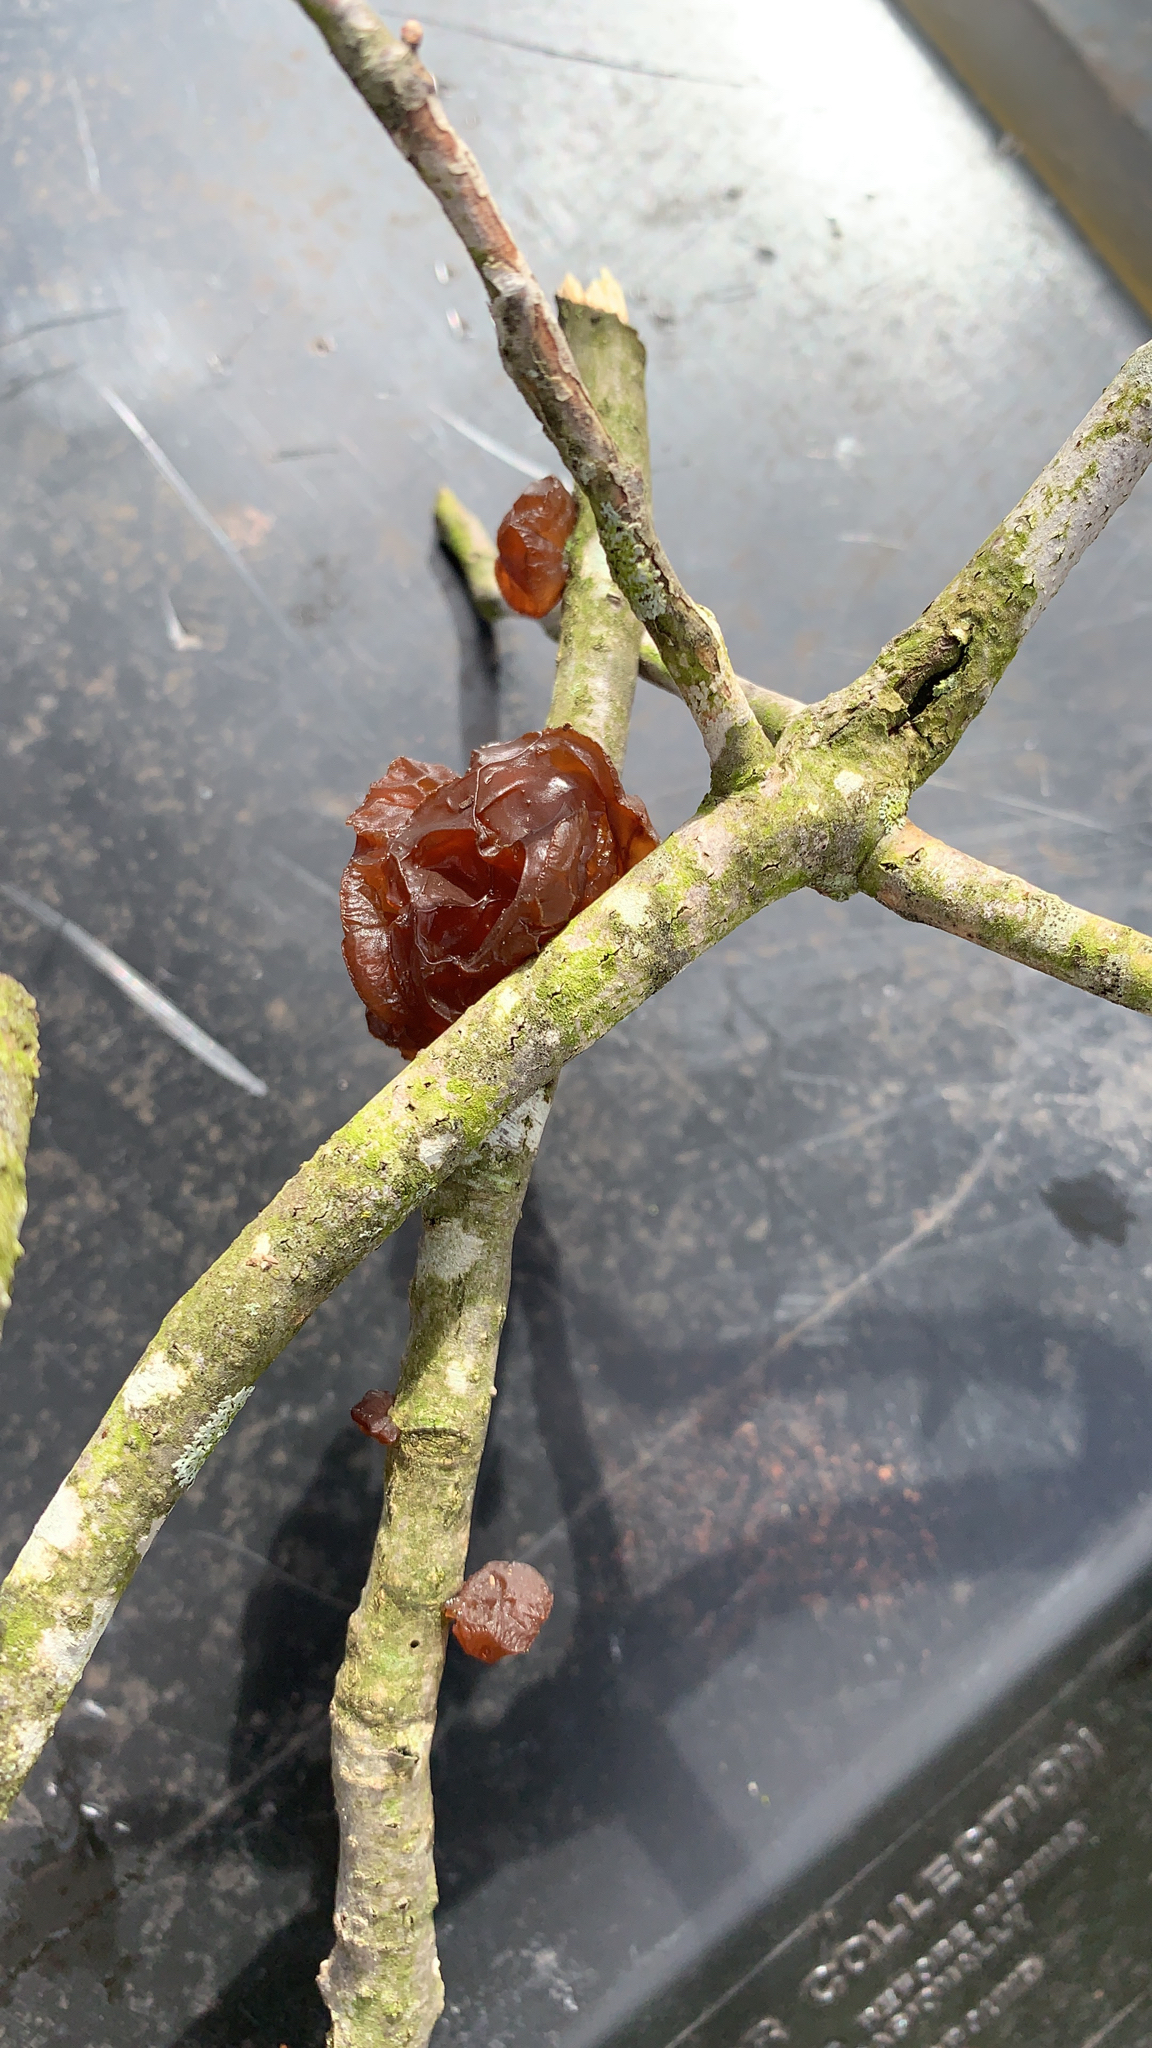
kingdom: Fungi
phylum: Basidiomycota
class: Agaricomycetes
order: Auriculariales
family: Auriculariaceae
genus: Exidia
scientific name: Exidia
